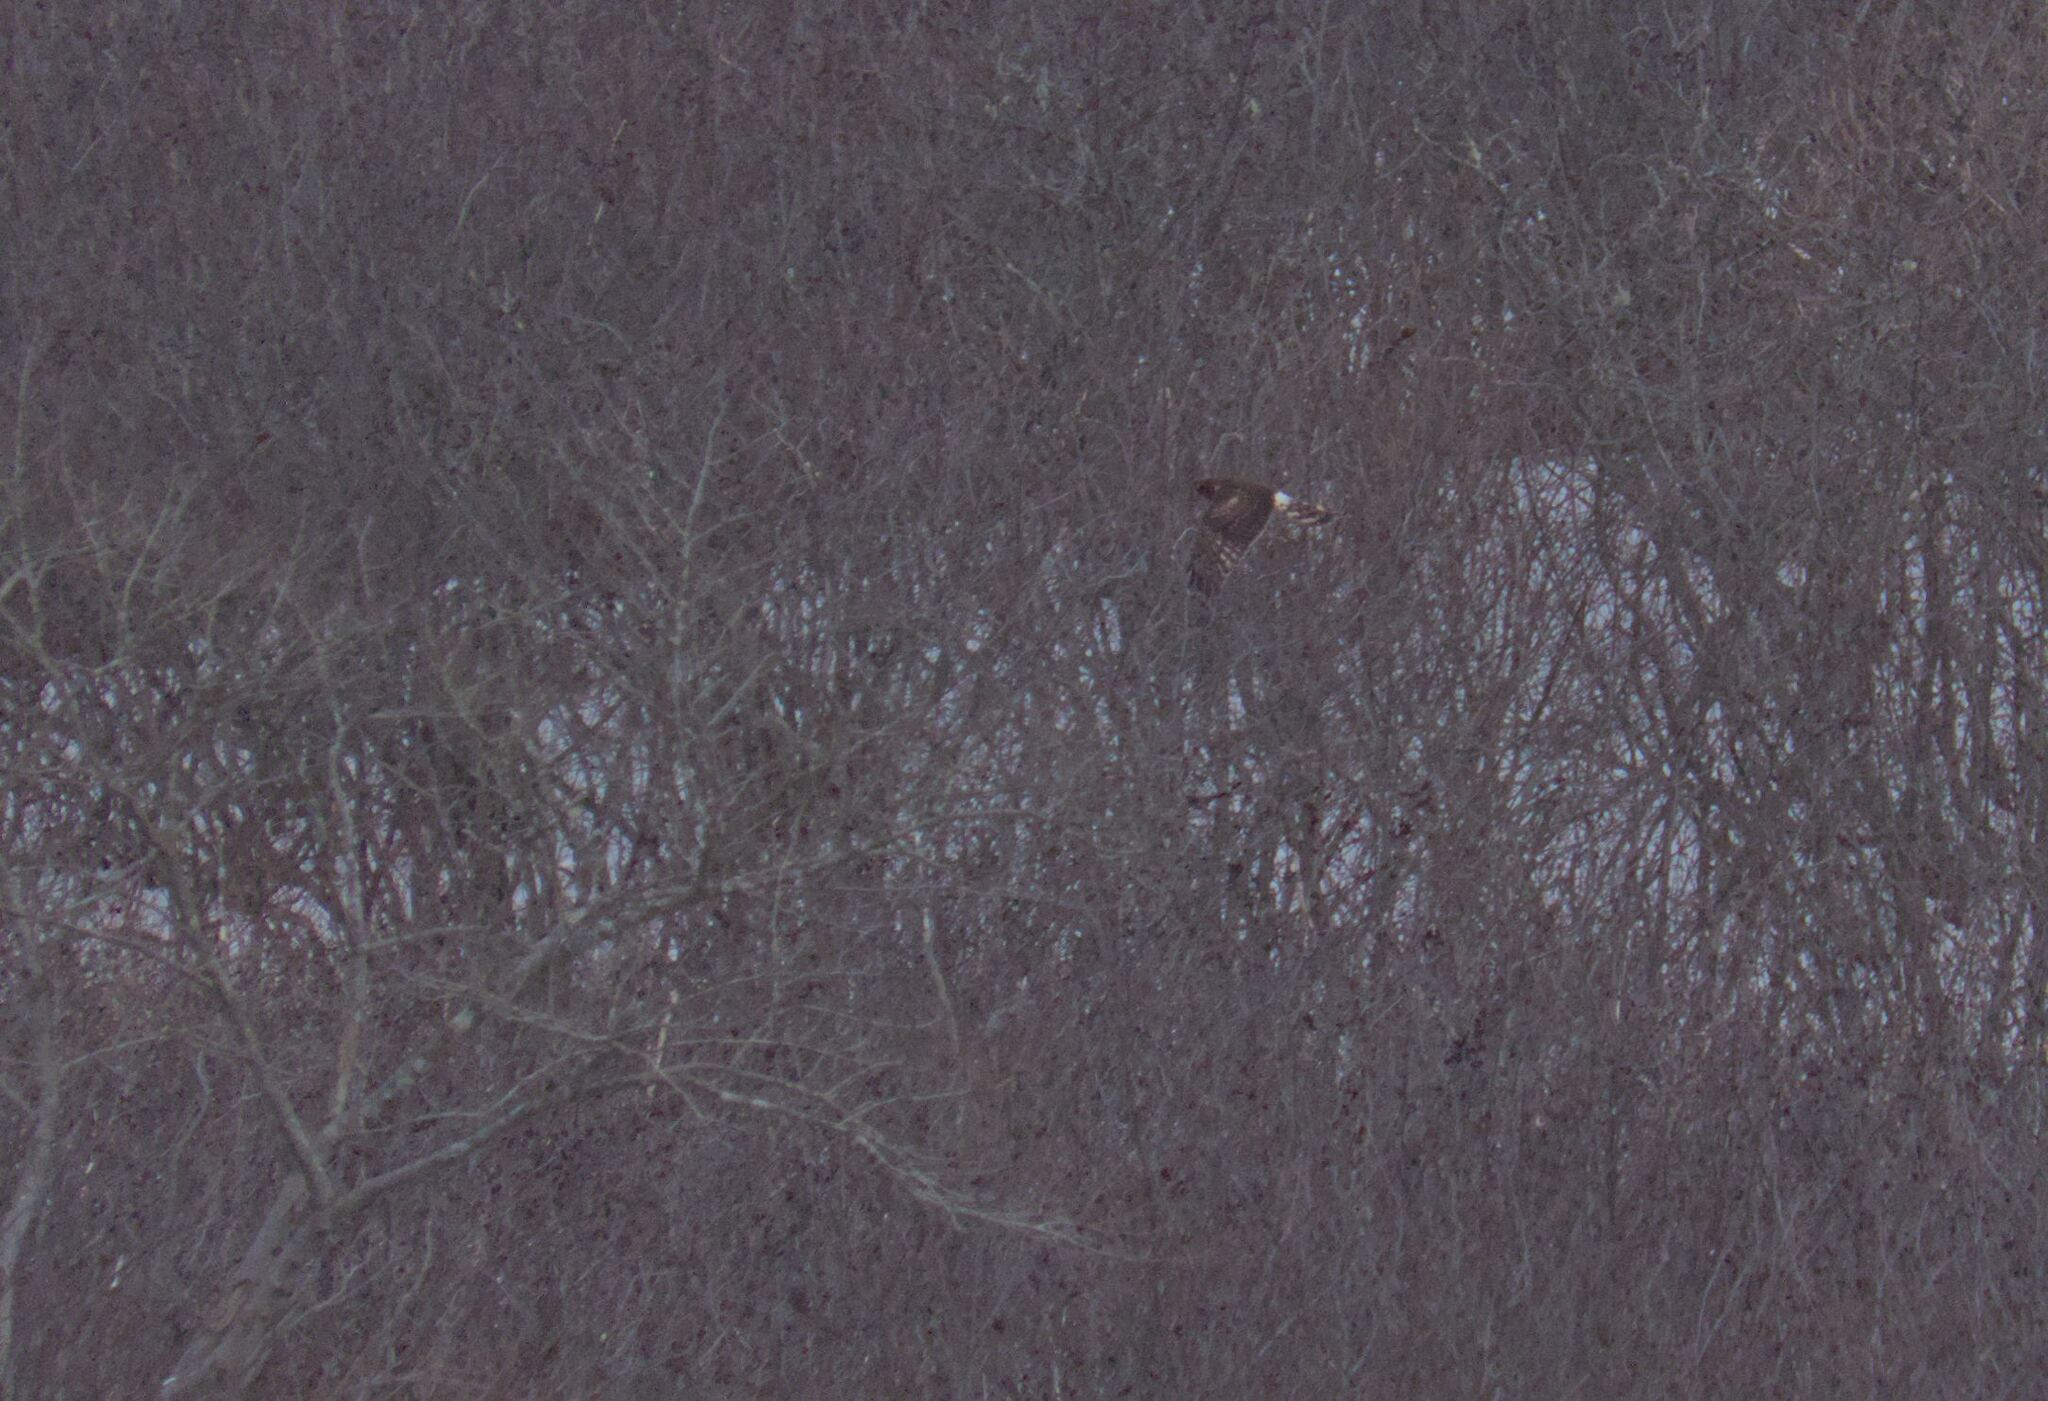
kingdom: Animalia
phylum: Chordata
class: Aves
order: Accipitriformes
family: Accipitridae
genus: Circus
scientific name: Circus cyaneus
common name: Hen harrier
